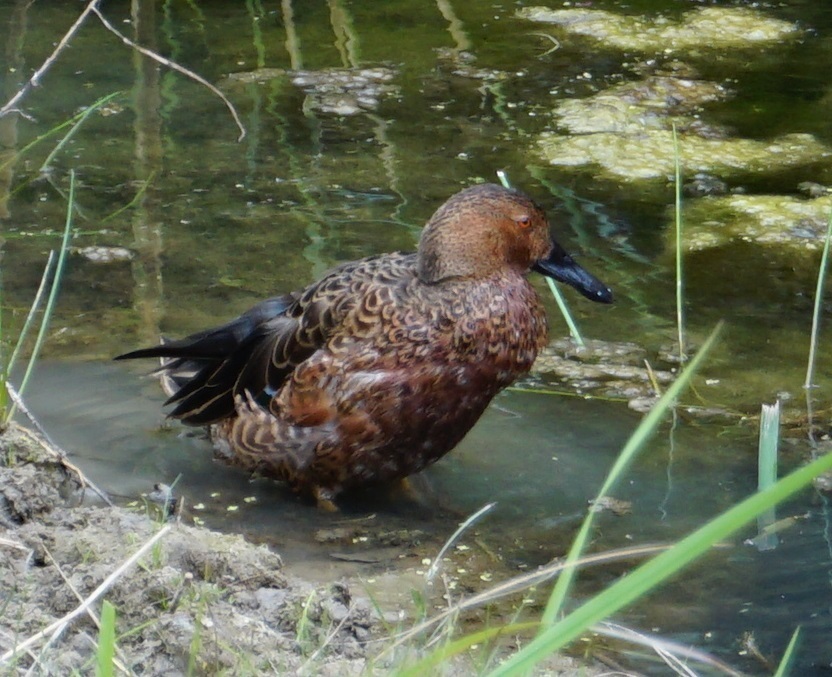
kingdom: Animalia
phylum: Chordata
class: Aves
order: Anseriformes
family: Anatidae
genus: Spatula
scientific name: Spatula cyanoptera
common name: Cinnamon teal
